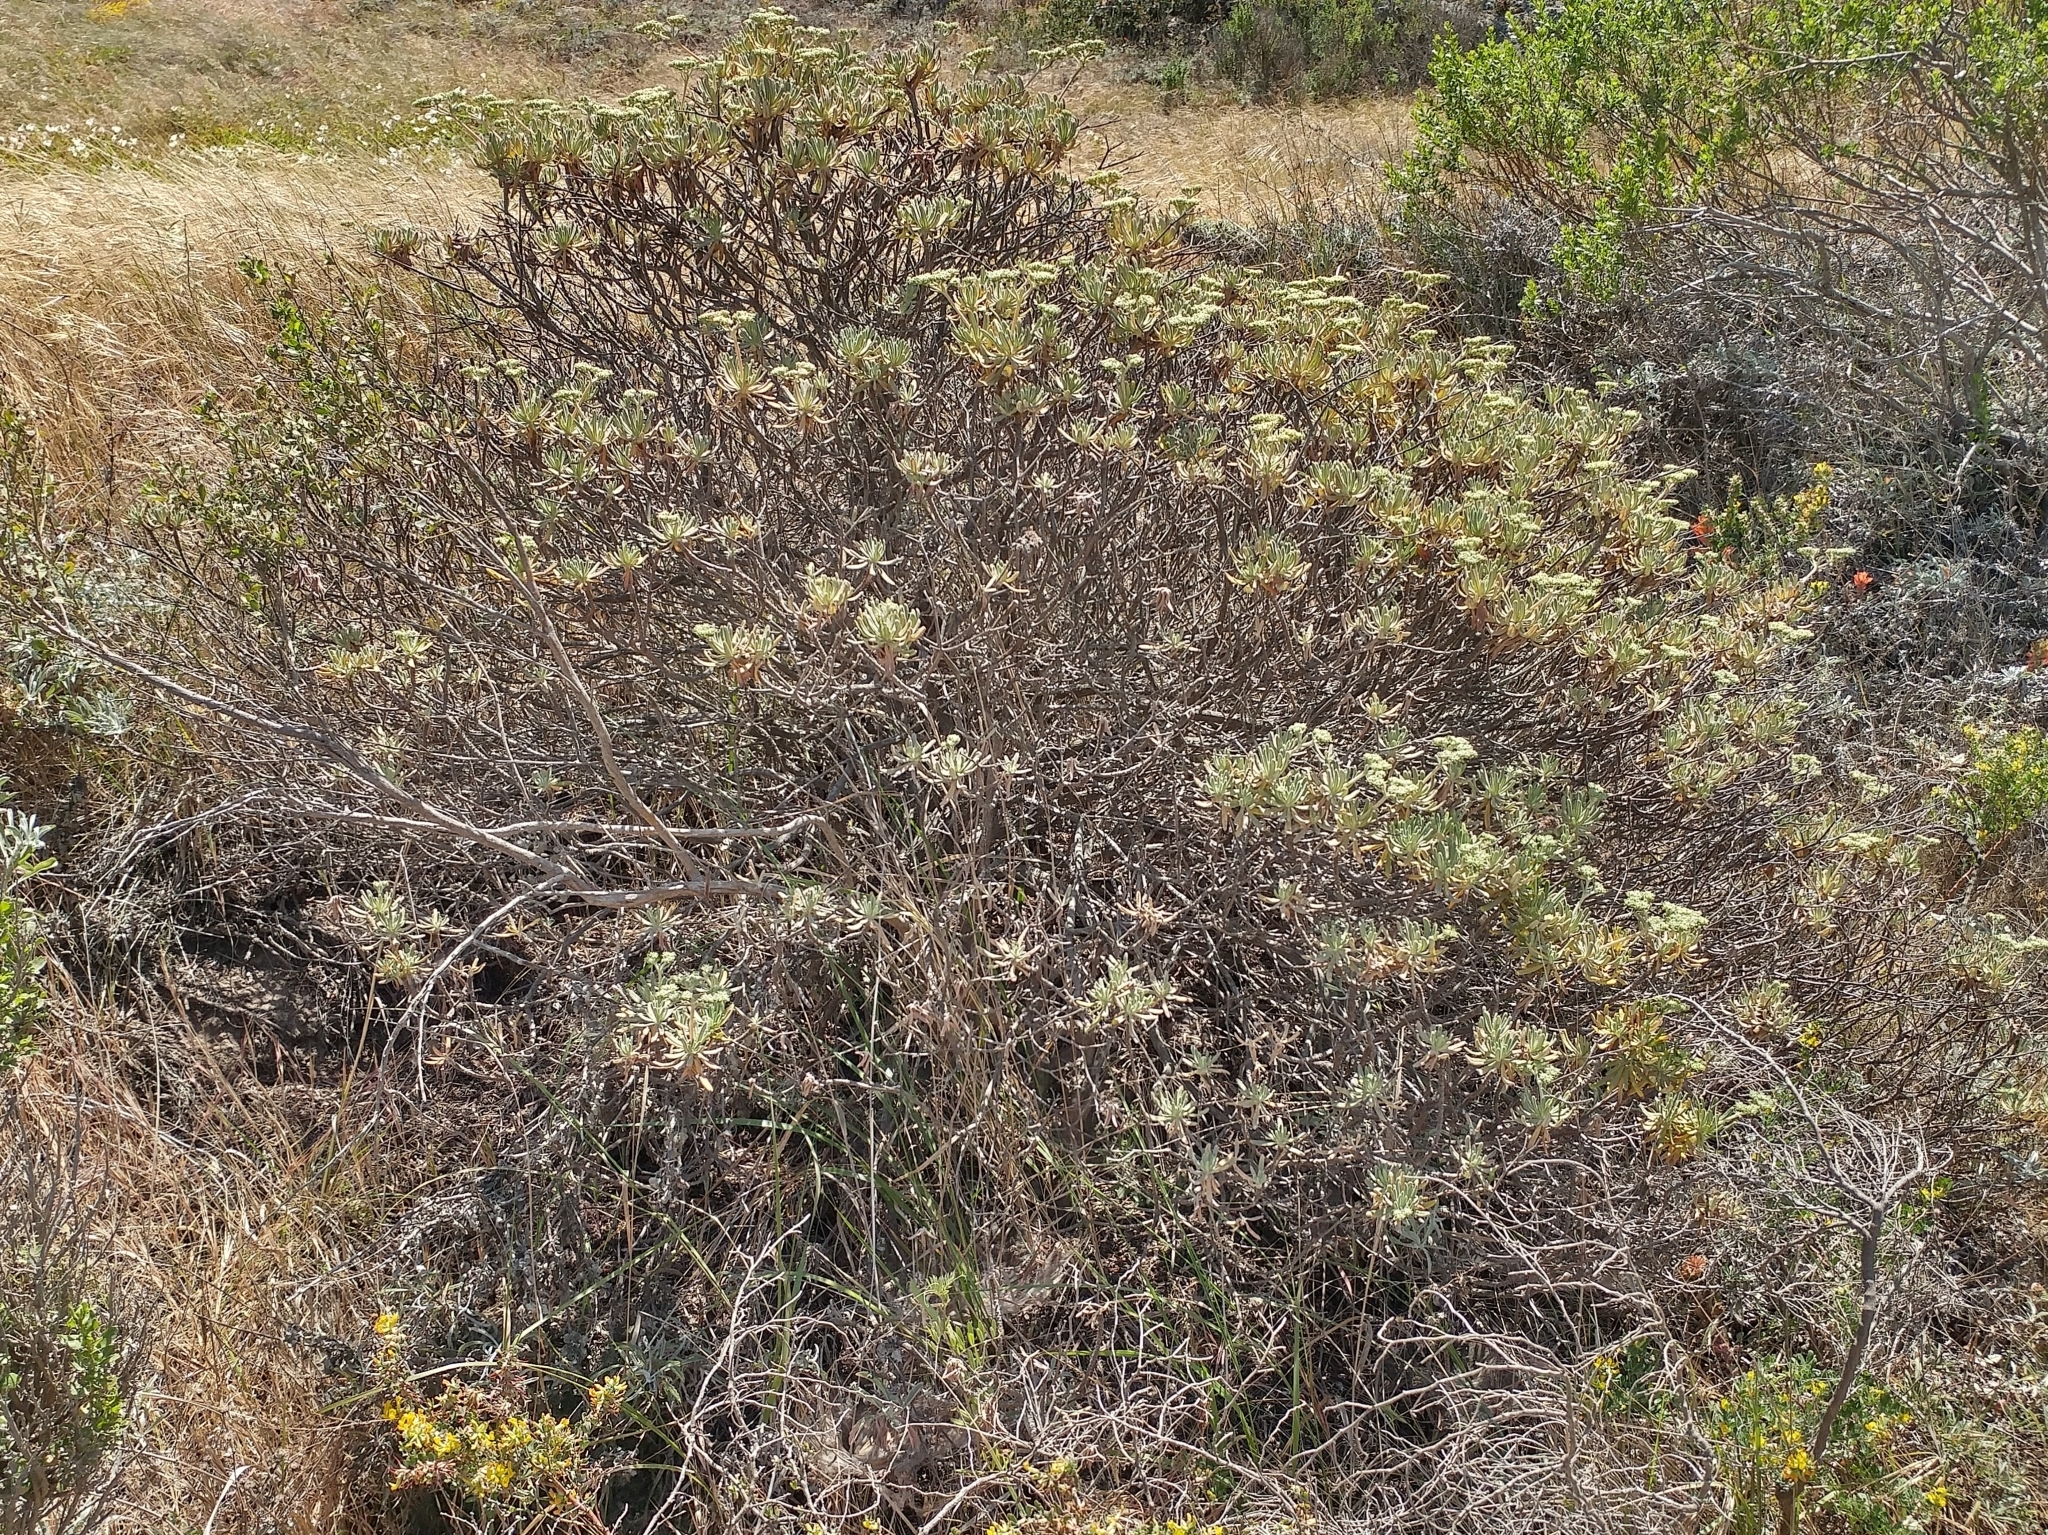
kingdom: Plantae
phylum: Tracheophyta
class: Magnoliopsida
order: Caryophyllales
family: Polygonaceae
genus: Eriogonum
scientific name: Eriogonum arborescens
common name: Island buckwheat
